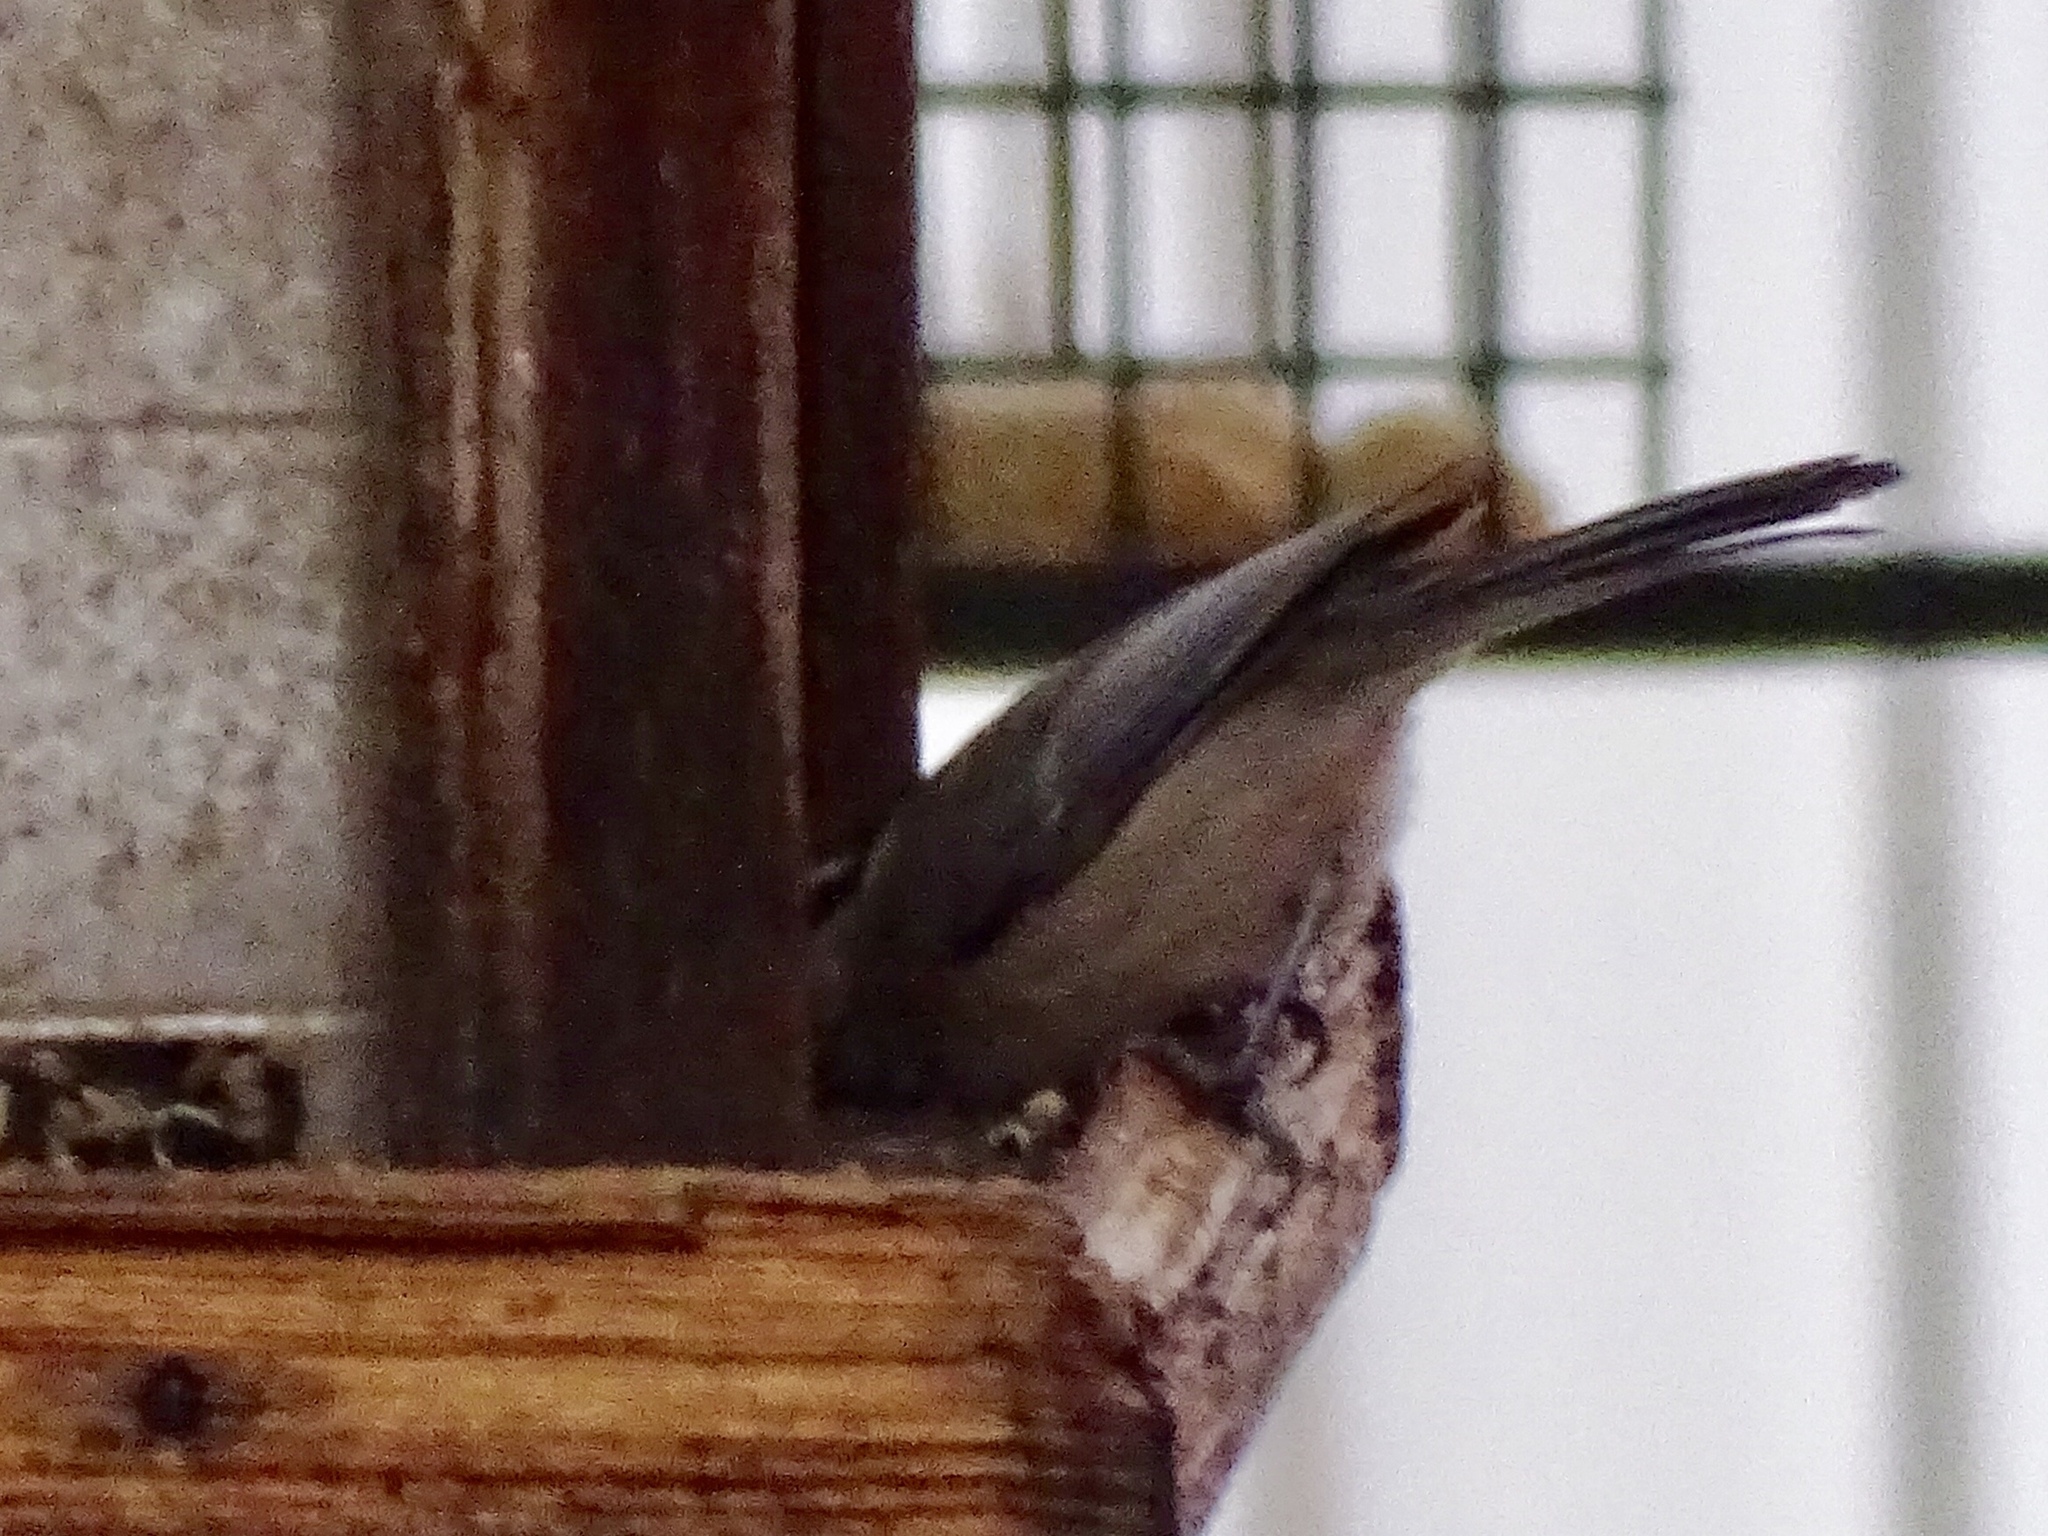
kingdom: Animalia
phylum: Chordata
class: Aves
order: Passeriformes
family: Paridae
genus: Poecile
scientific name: Poecile gambeli
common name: Mountain chickadee
